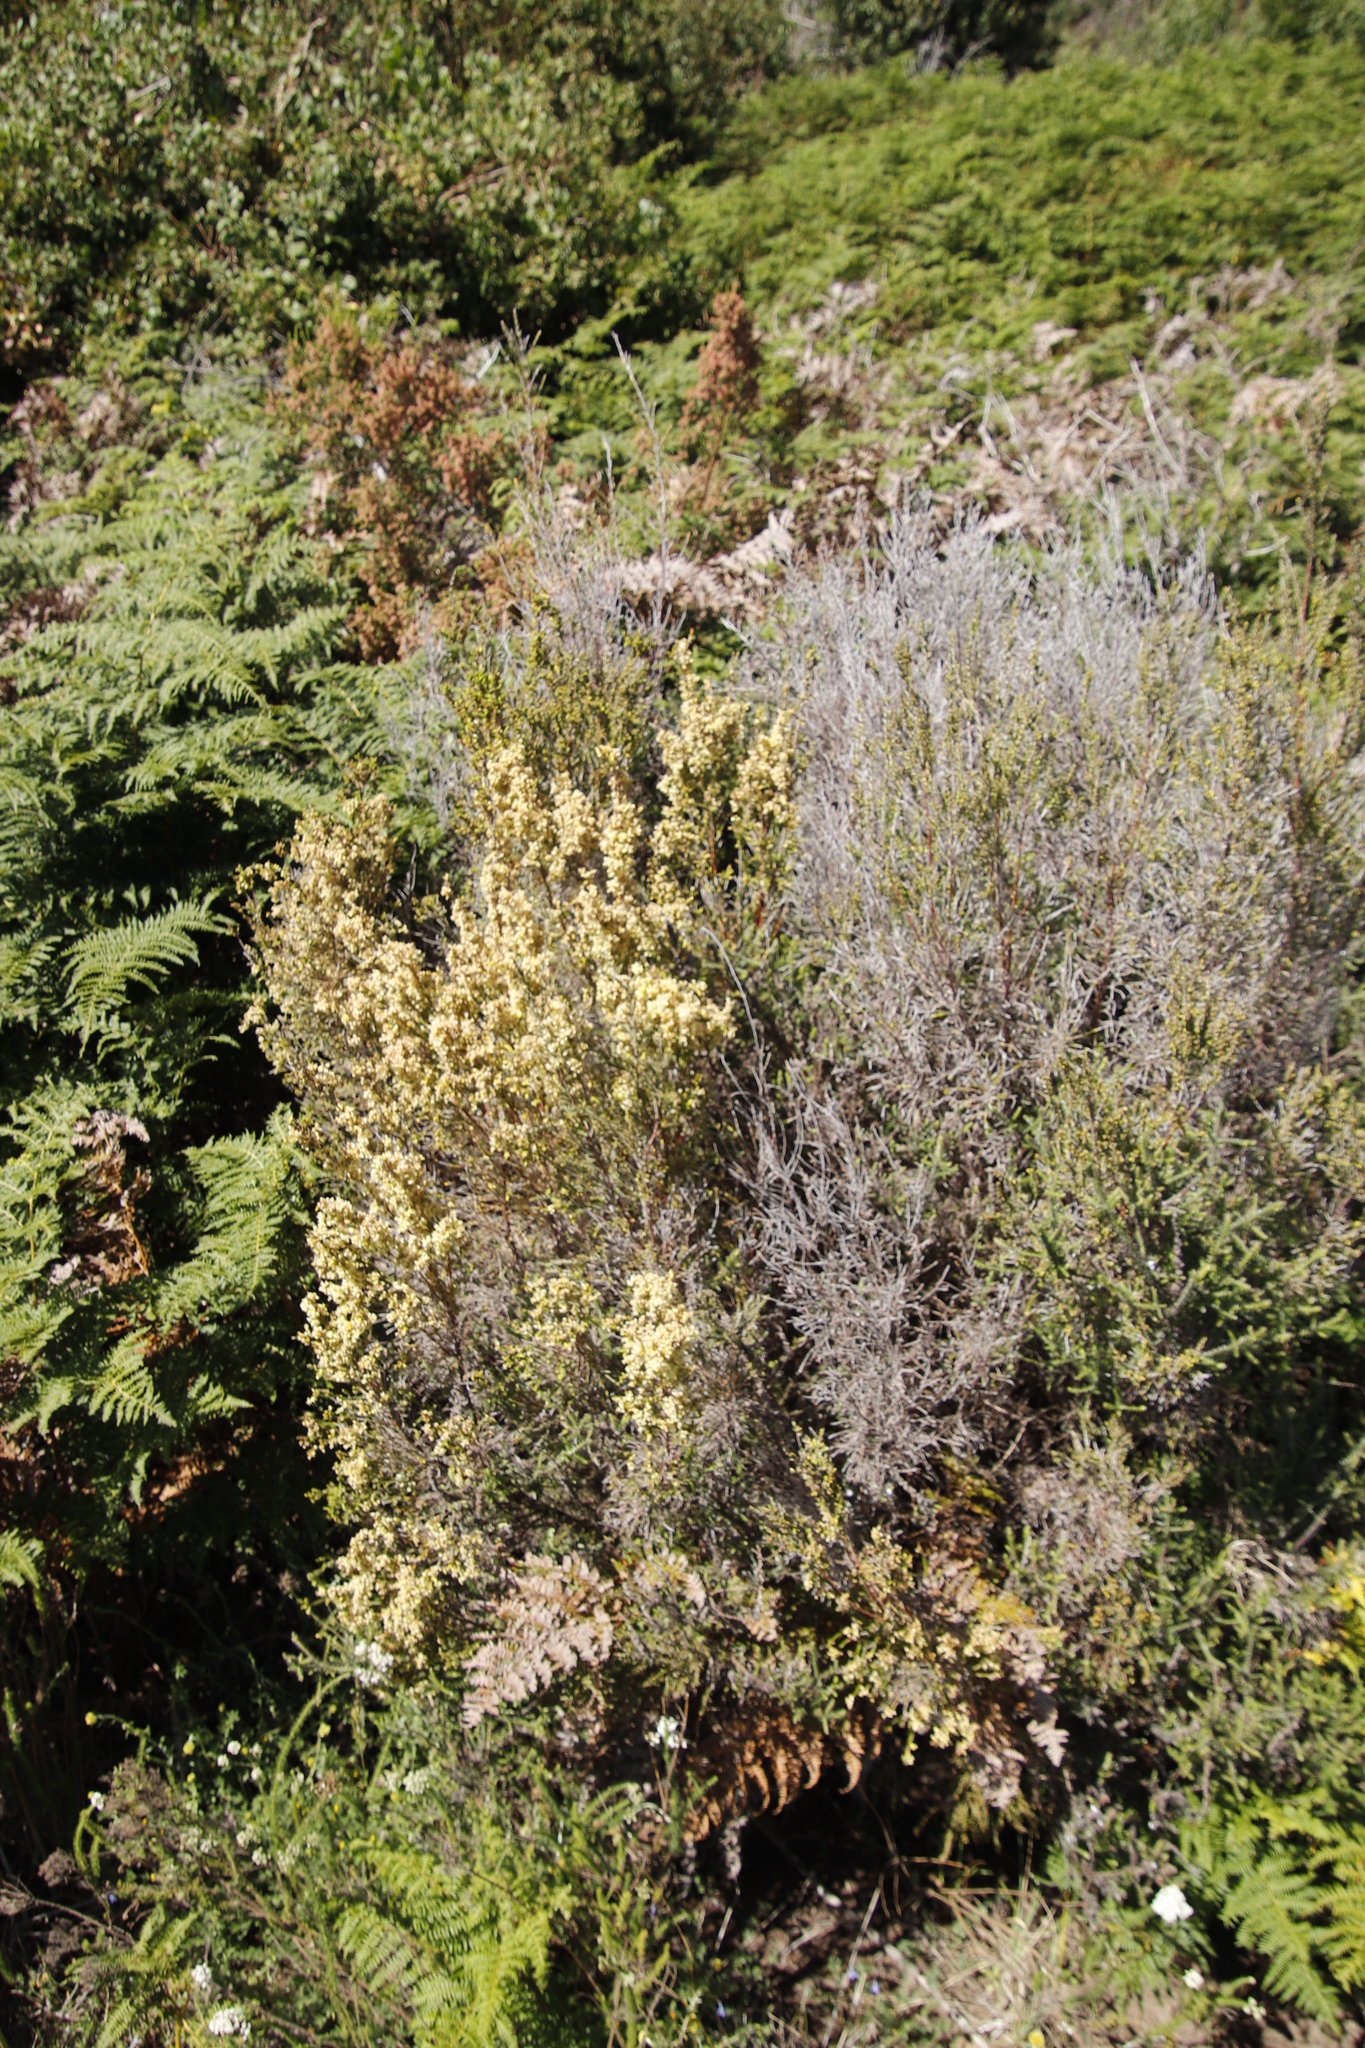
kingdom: Plantae
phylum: Tracheophyta
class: Magnoliopsida
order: Malvales
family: Thymelaeaceae
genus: Passerina
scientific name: Passerina corymbosa
